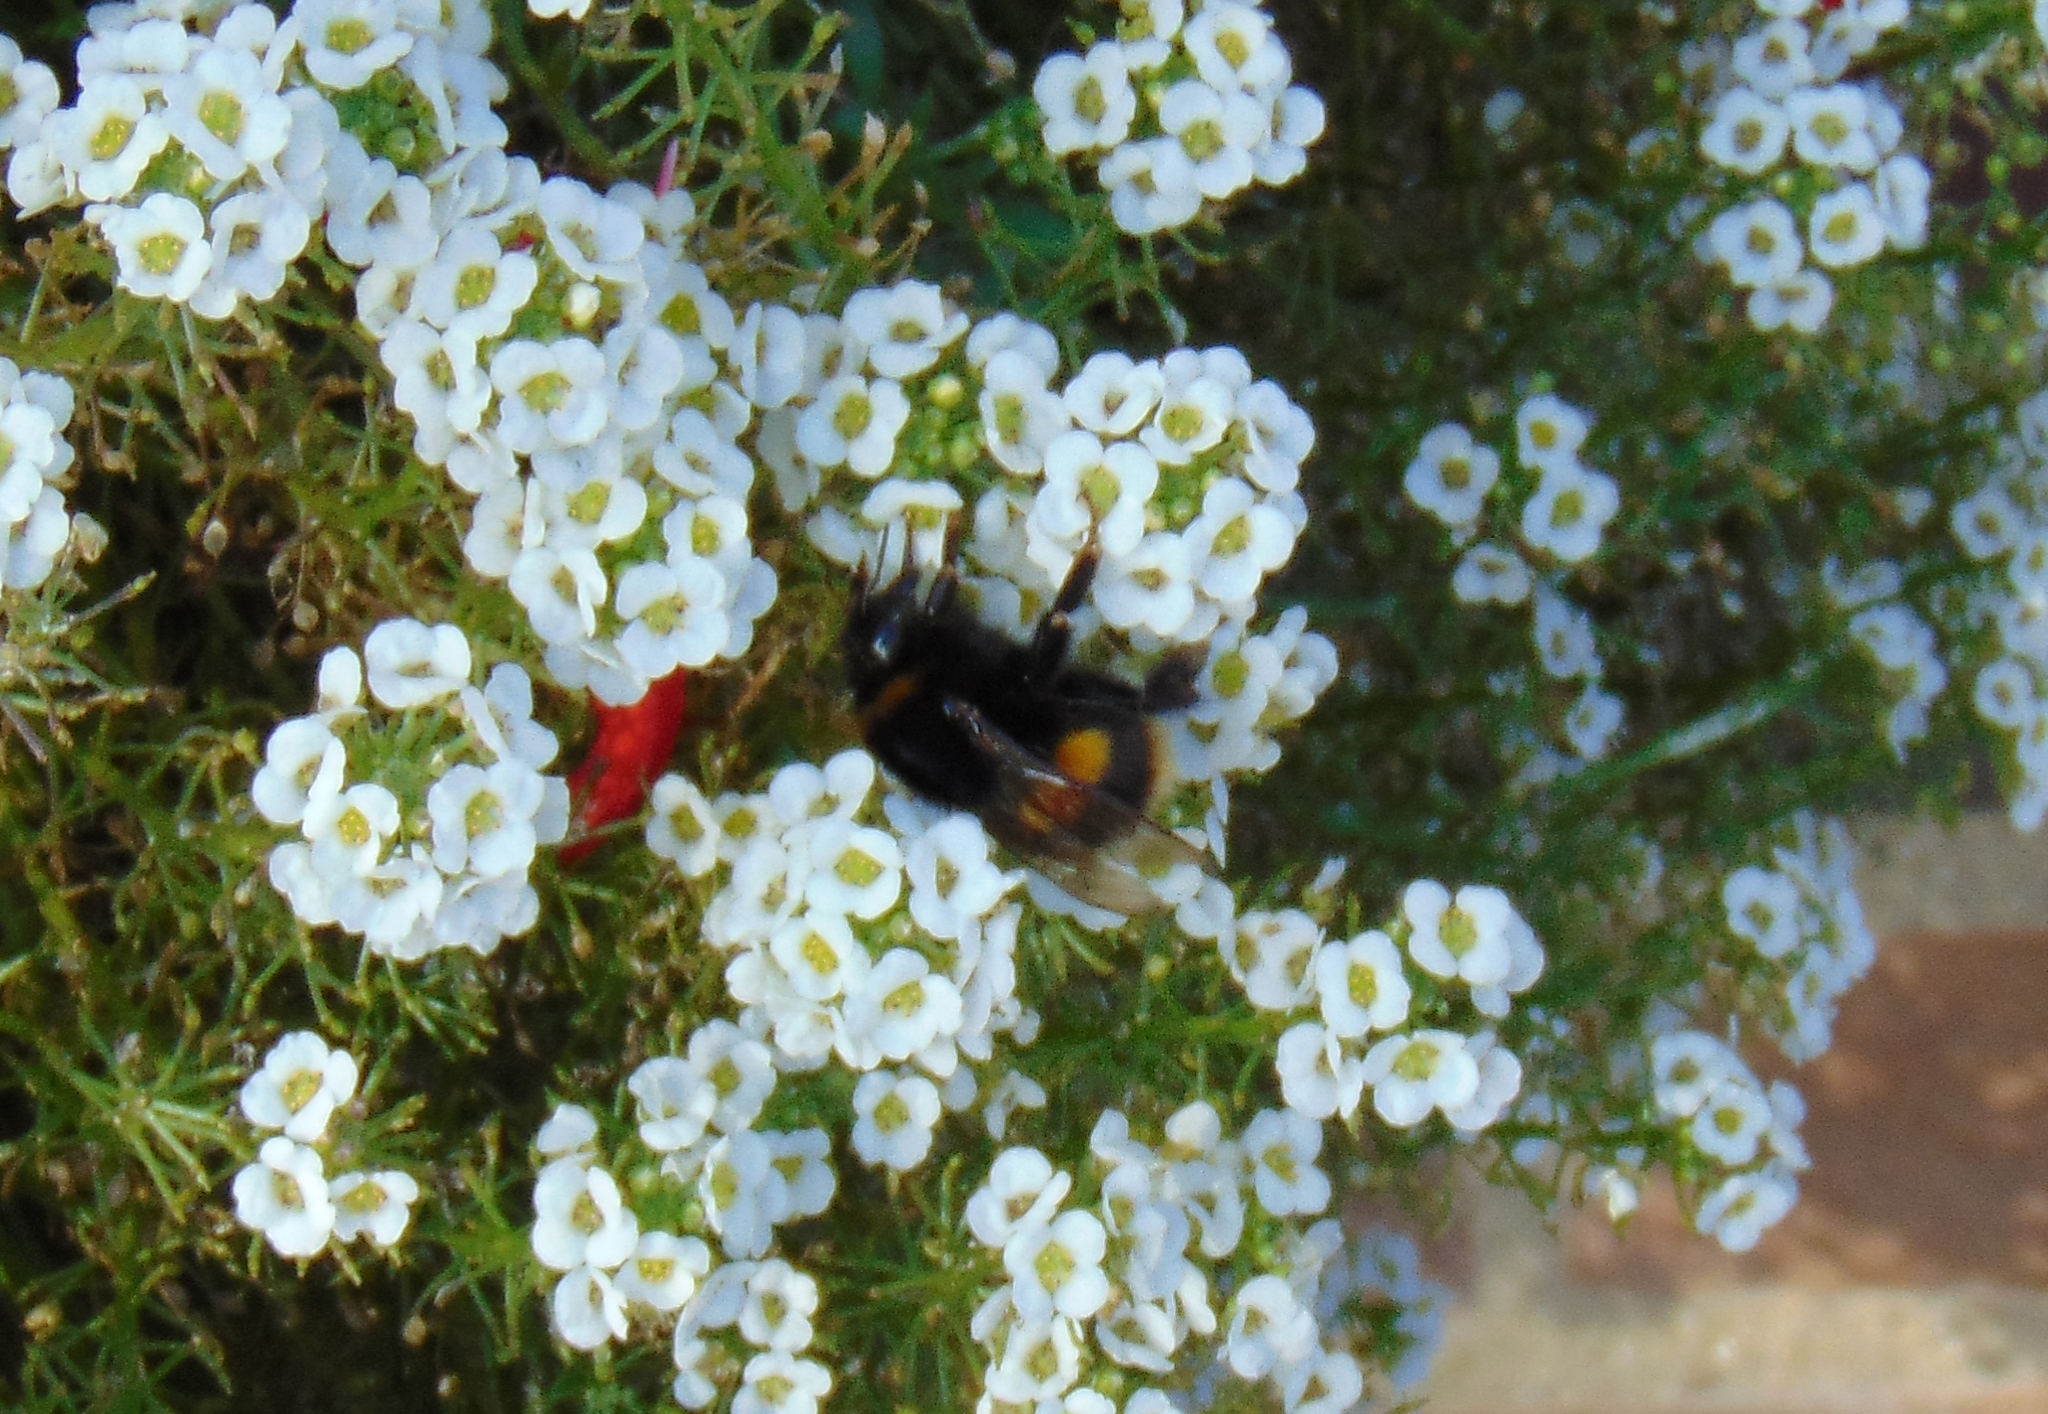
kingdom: Animalia
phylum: Arthropoda
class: Insecta
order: Hymenoptera
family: Apidae
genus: Bombus
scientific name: Bombus terrestris
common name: Buff-tailed bumblebee
